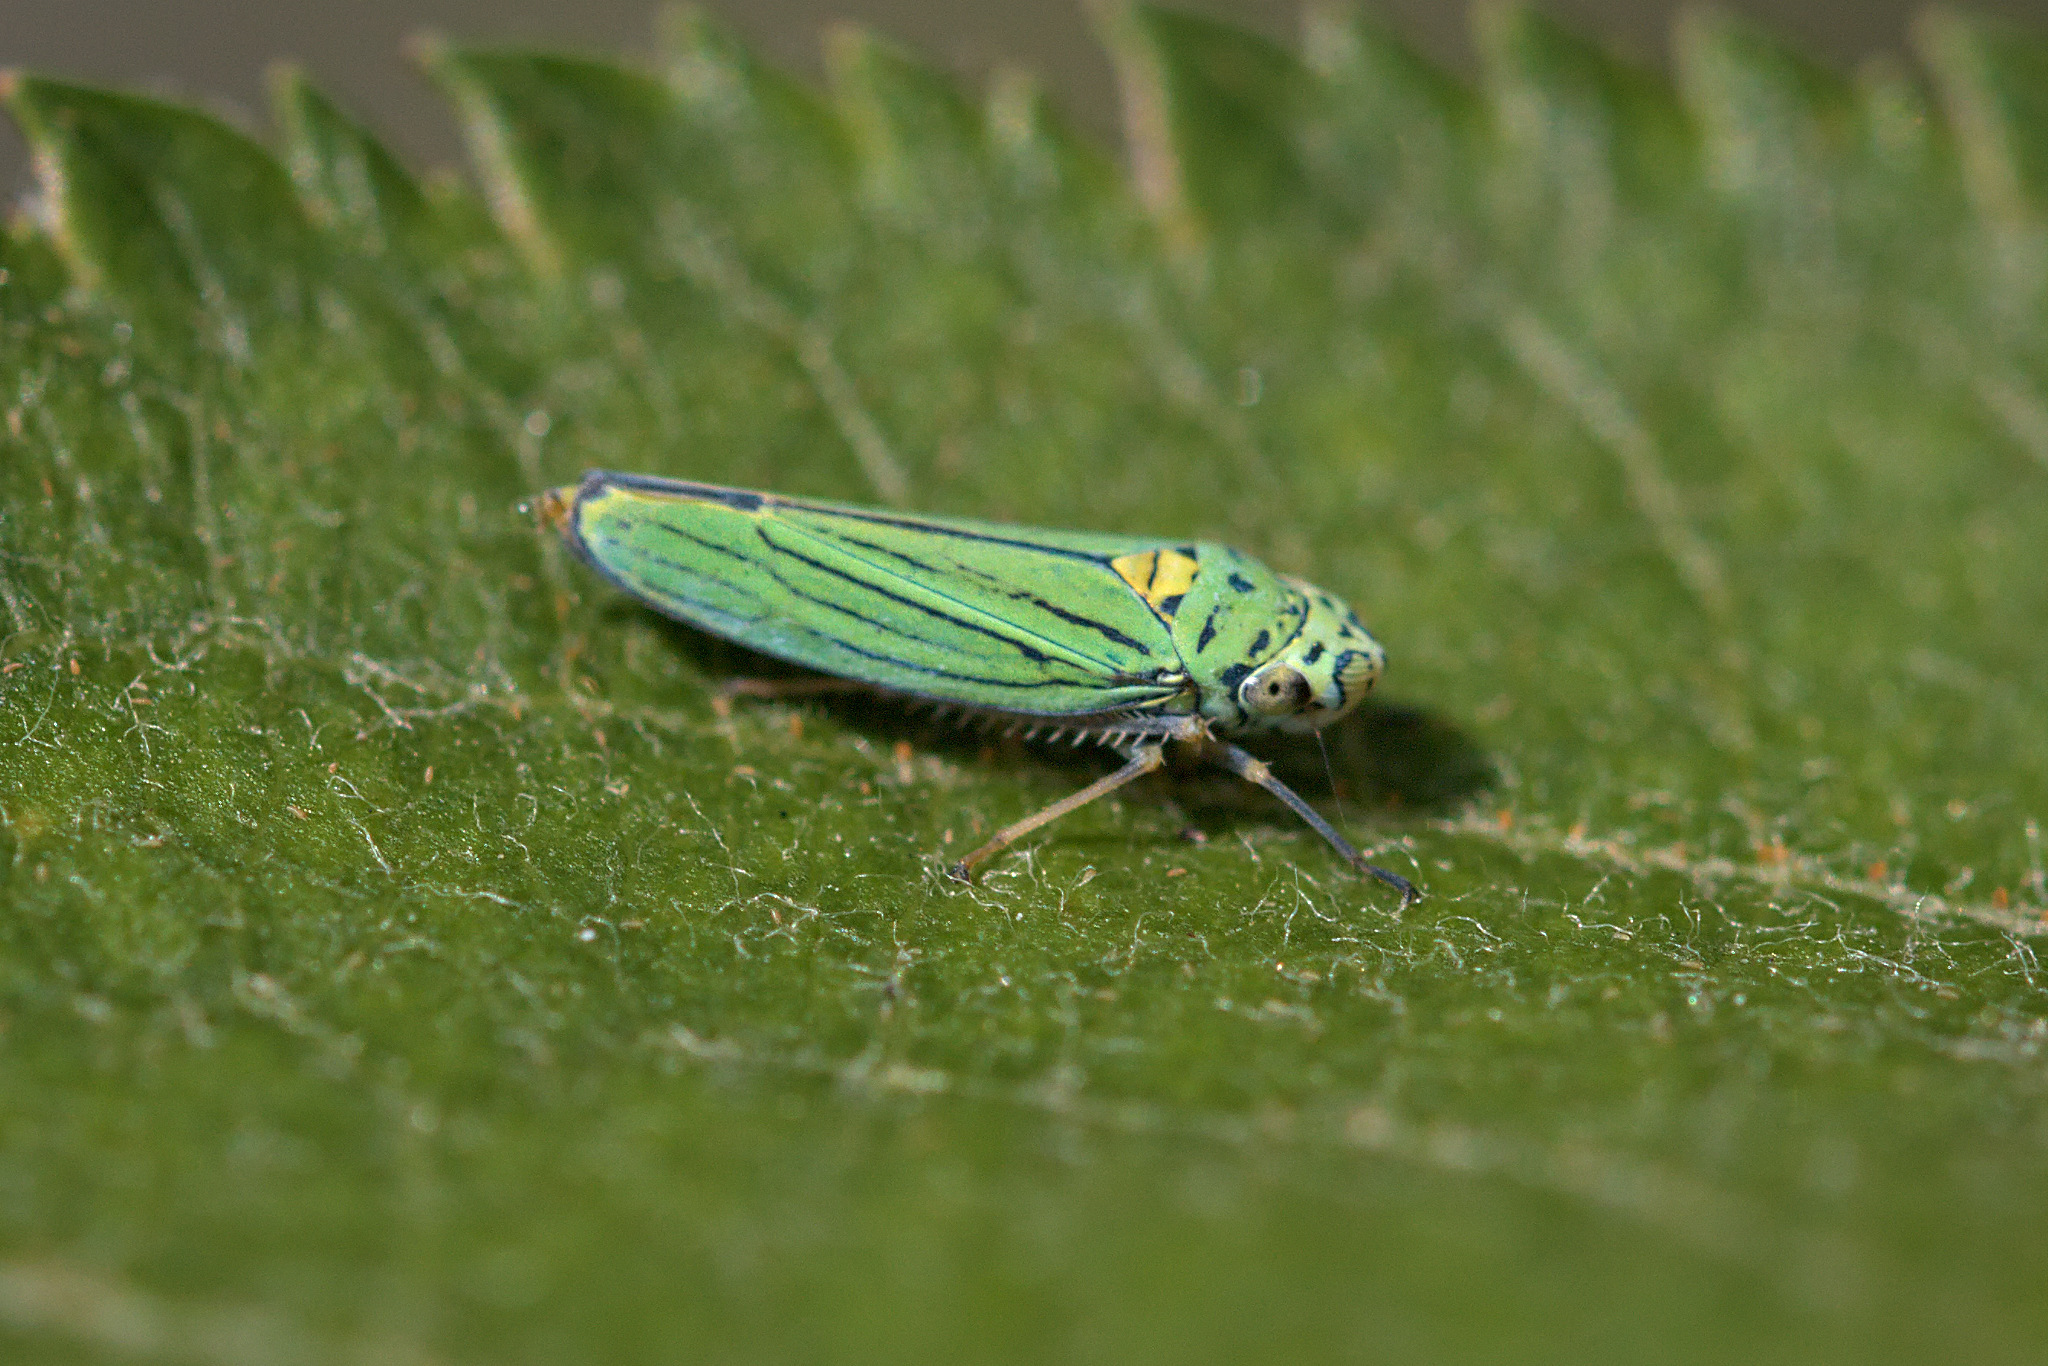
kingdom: Animalia
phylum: Arthropoda
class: Insecta
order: Hemiptera
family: Cicadellidae
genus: Graphocephala
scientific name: Graphocephala atropunctata
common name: Blue-green sharpshooter
